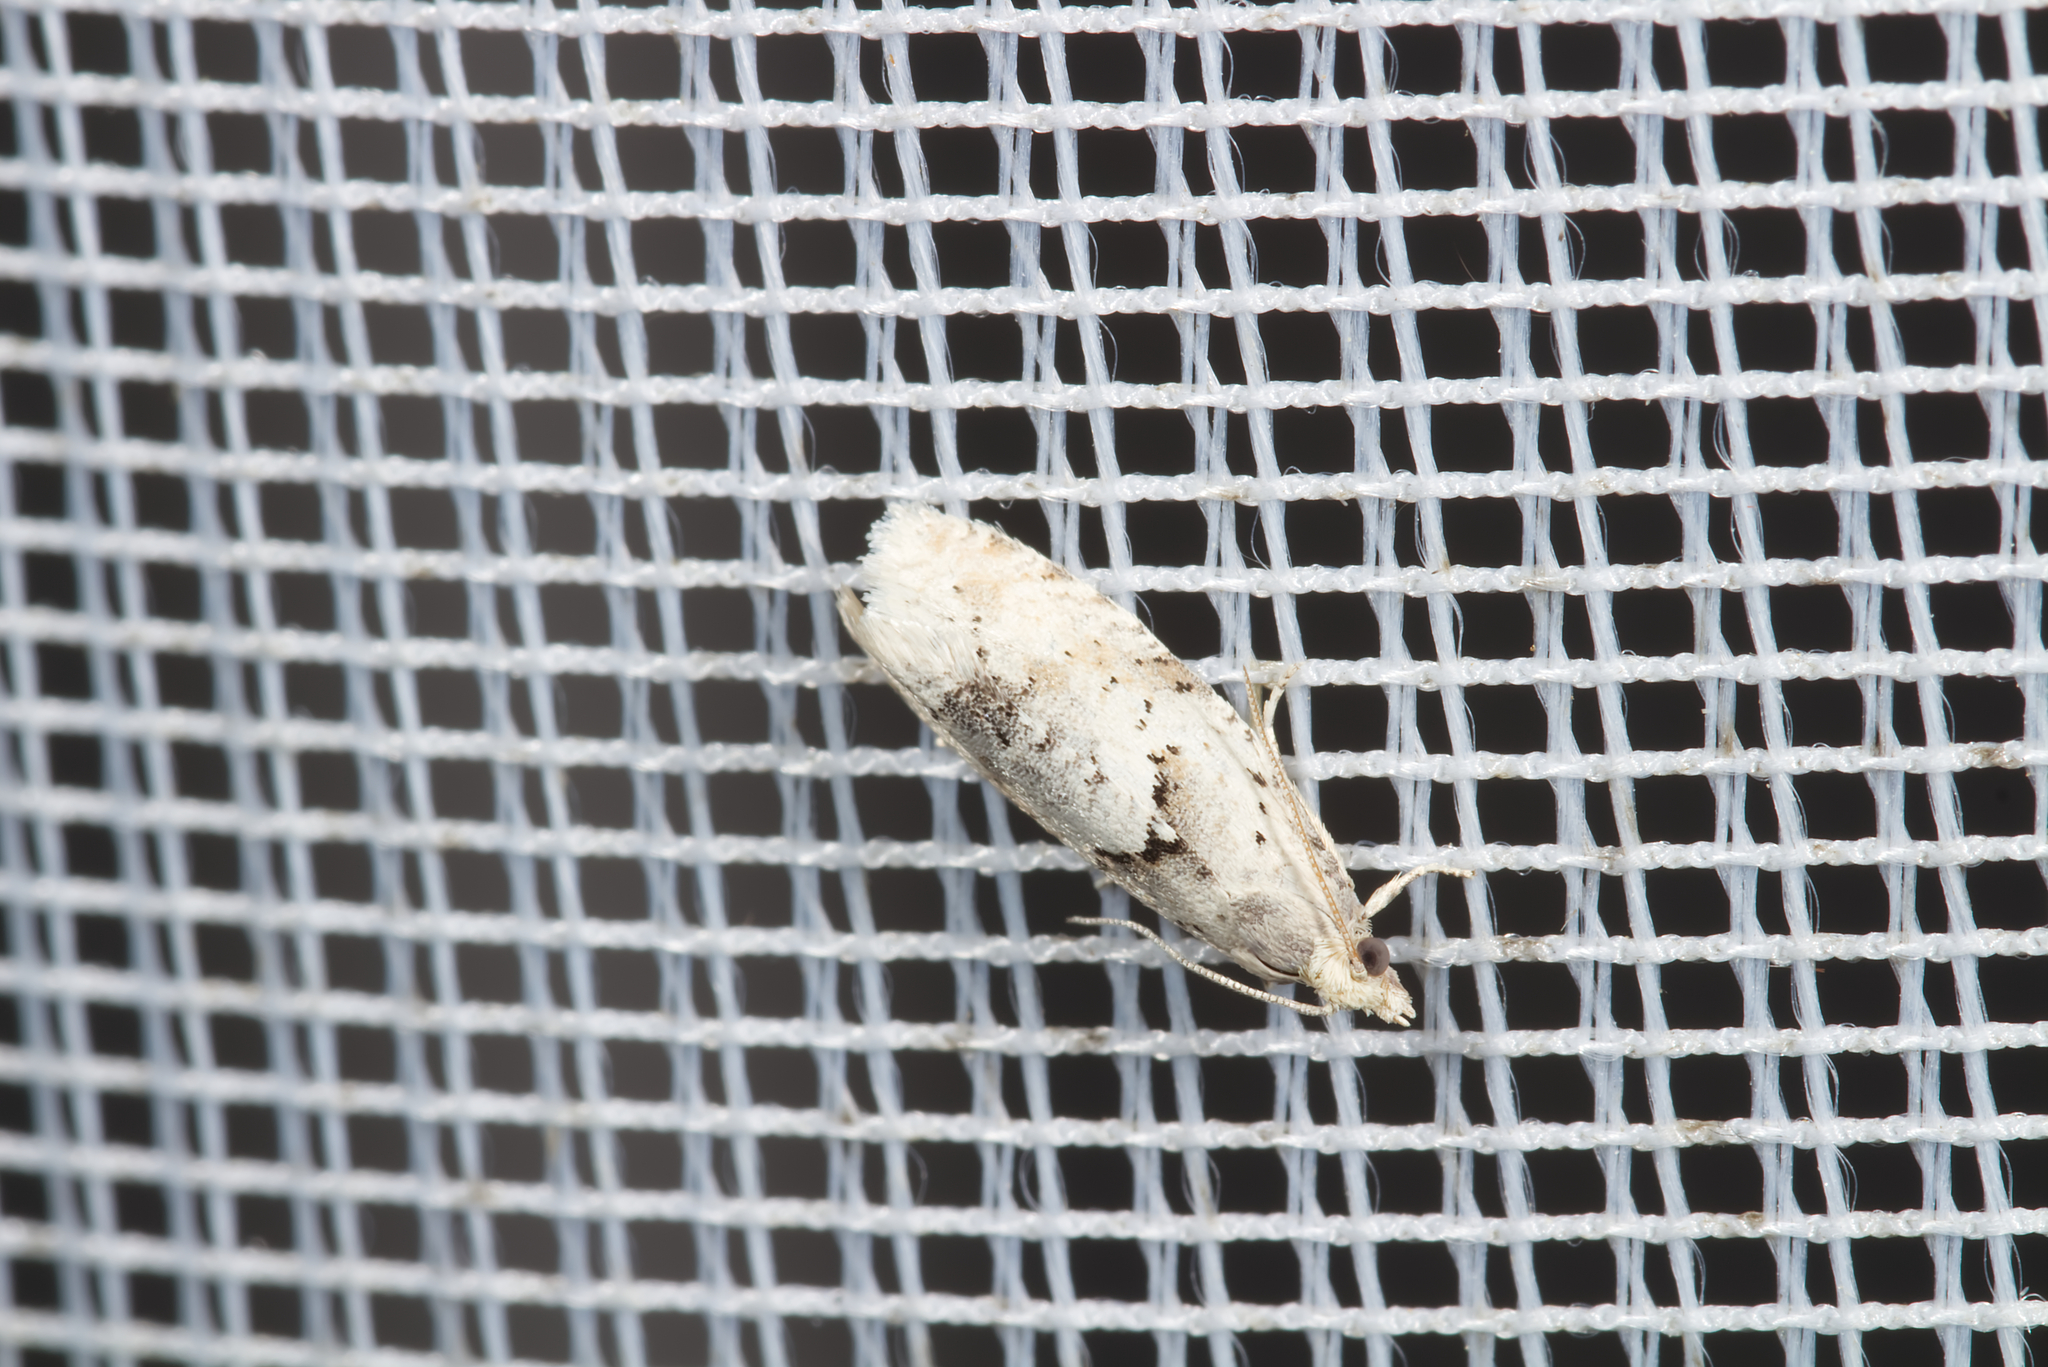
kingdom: Animalia
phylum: Arthropoda
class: Insecta
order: Lepidoptera
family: Tortricidae
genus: Epinotia
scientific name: Epinotia bilunana
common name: Crescent bell
